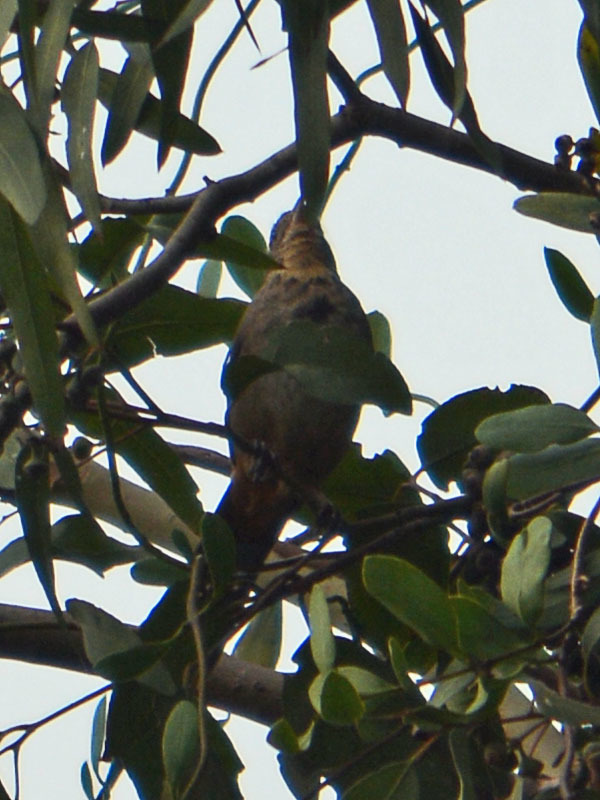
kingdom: Animalia
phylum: Chordata
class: Aves
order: Passeriformes
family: Passerellidae
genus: Melozone
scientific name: Melozone fusca
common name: Canyon towhee
